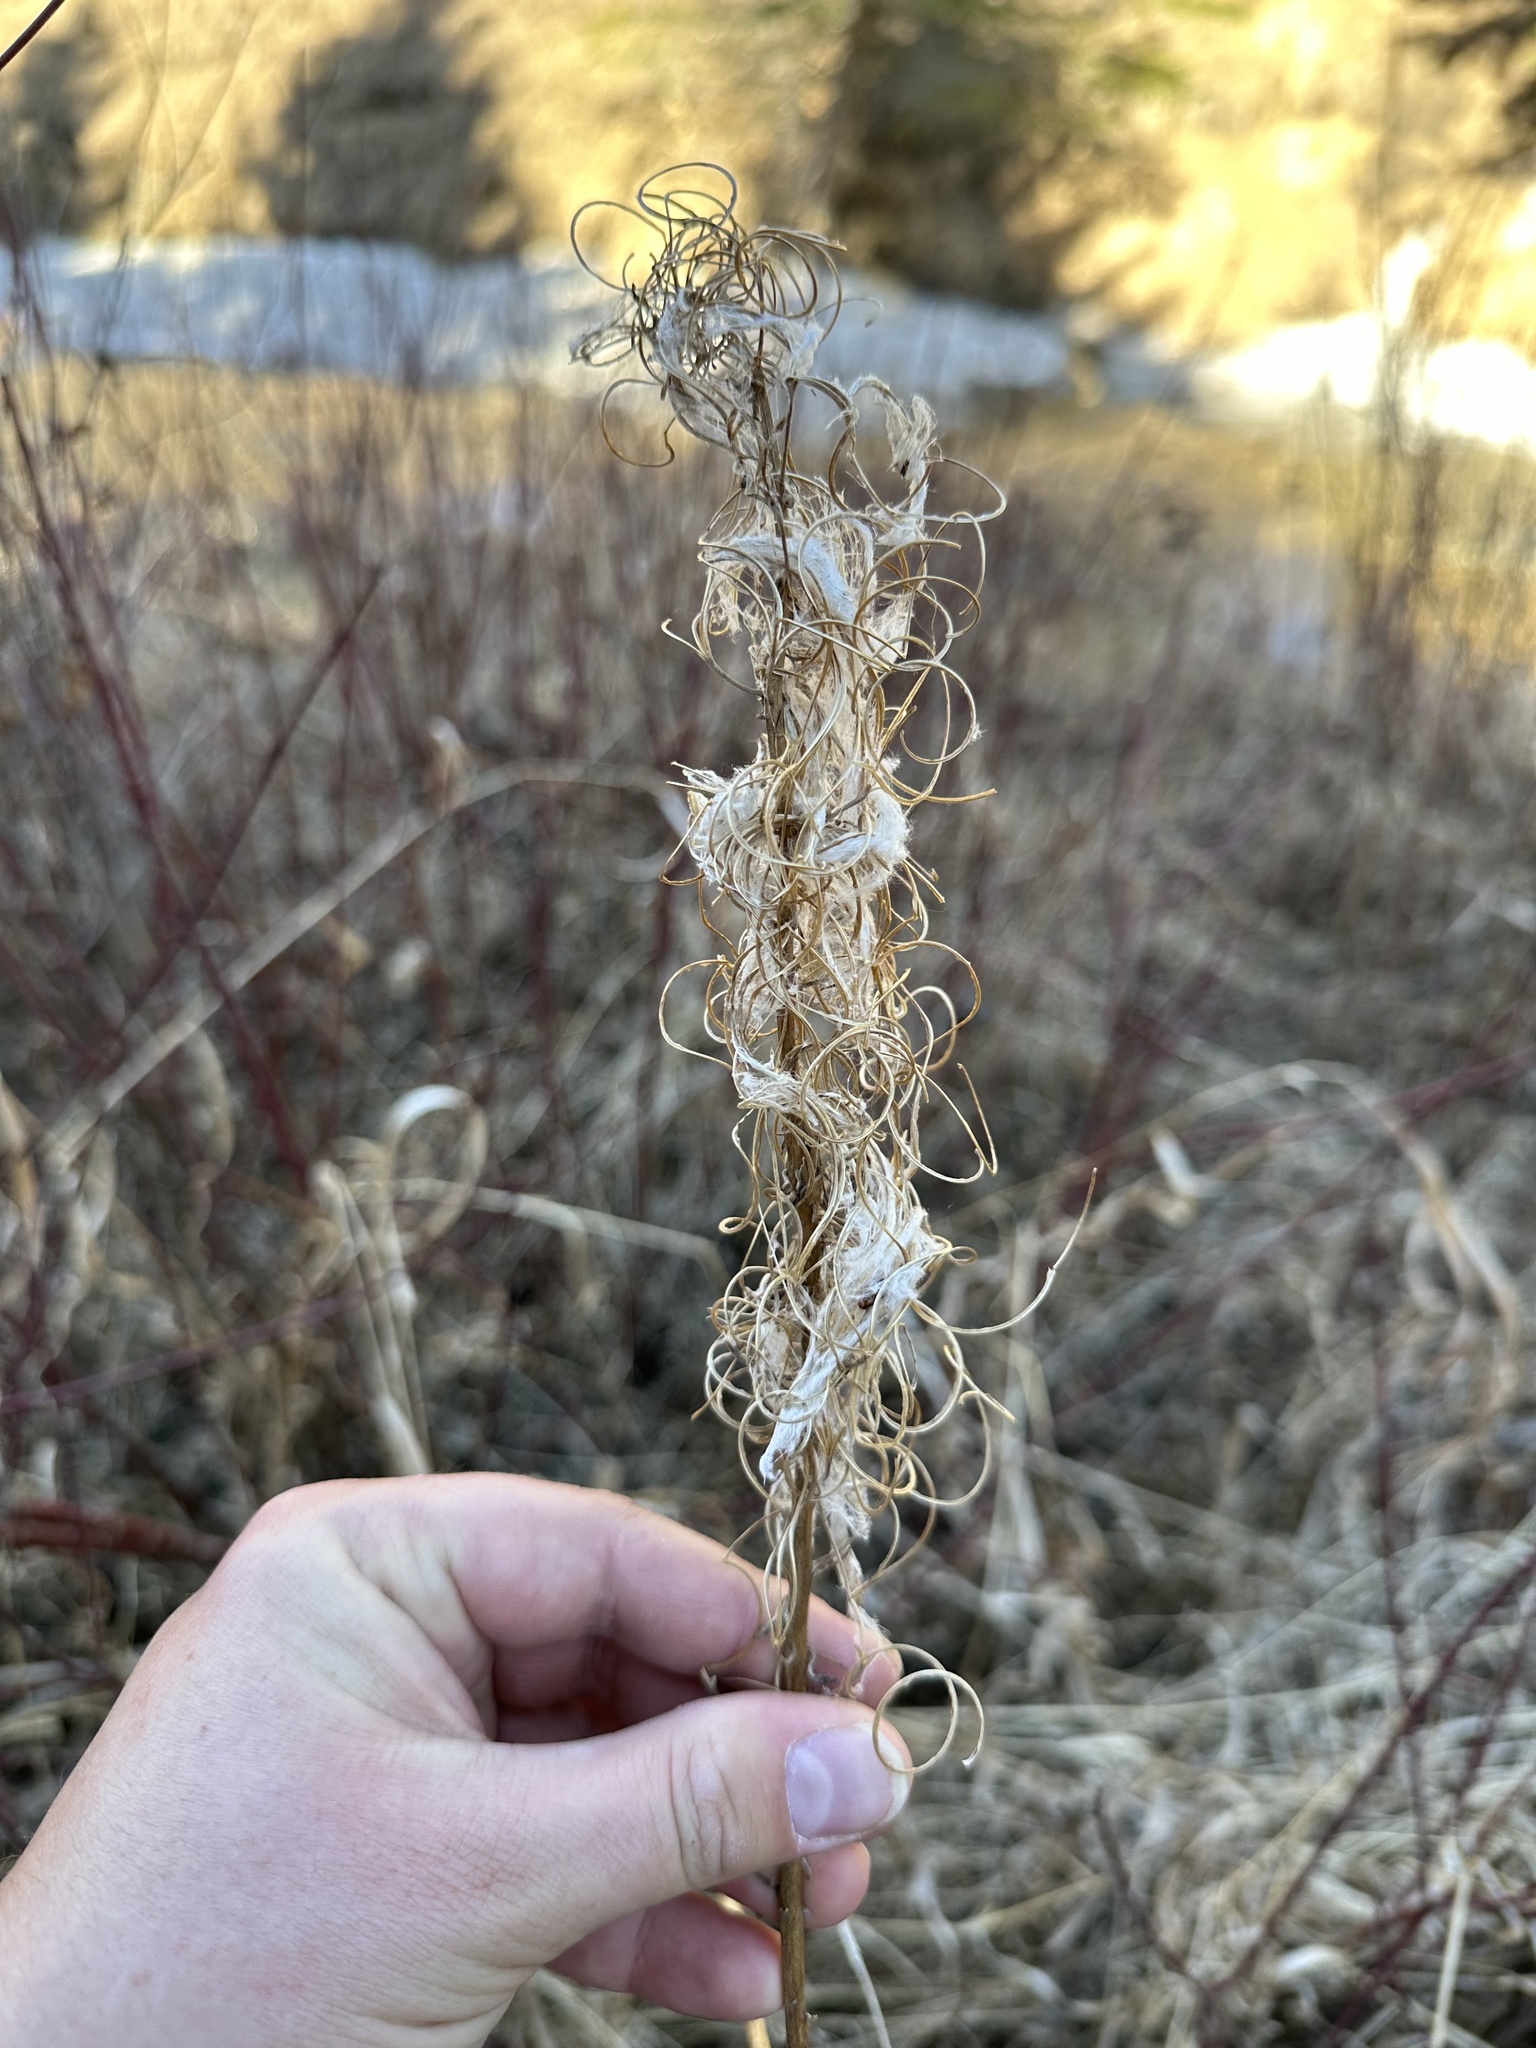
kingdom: Plantae
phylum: Tracheophyta
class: Magnoliopsida
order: Myrtales
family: Onagraceae
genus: Chamaenerion
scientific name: Chamaenerion angustifolium
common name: Fireweed
